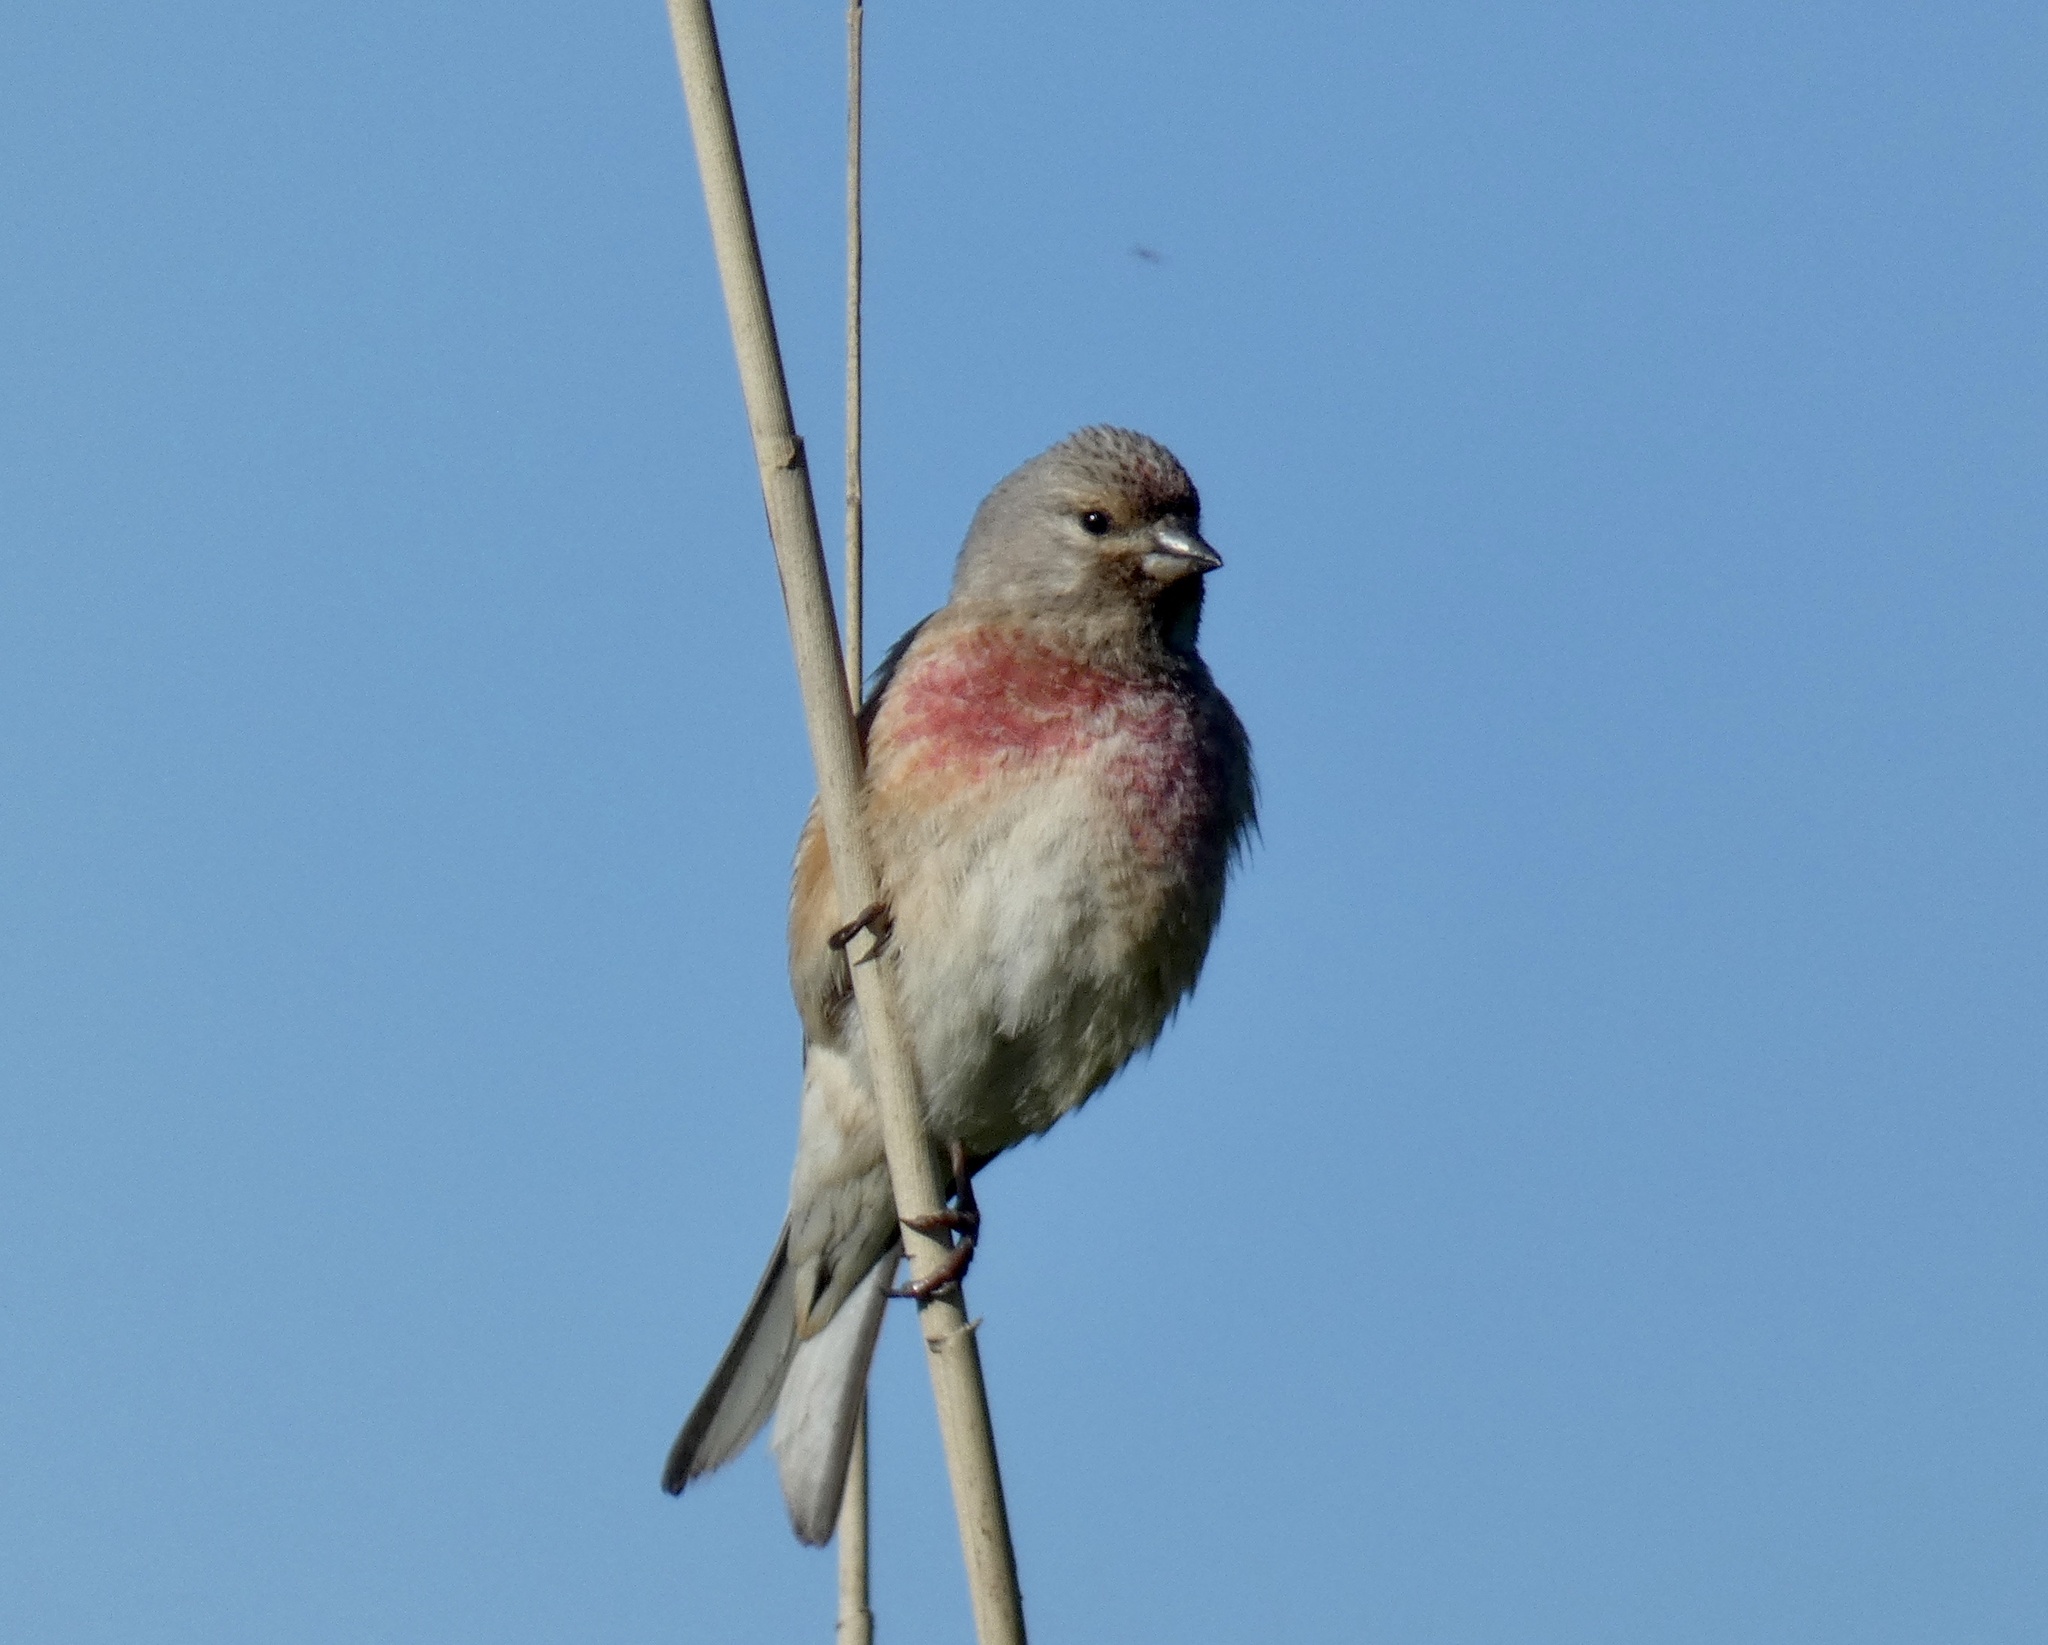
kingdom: Animalia
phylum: Chordata
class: Aves
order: Passeriformes
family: Fringillidae
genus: Linaria
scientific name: Linaria cannabina
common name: Common linnet
